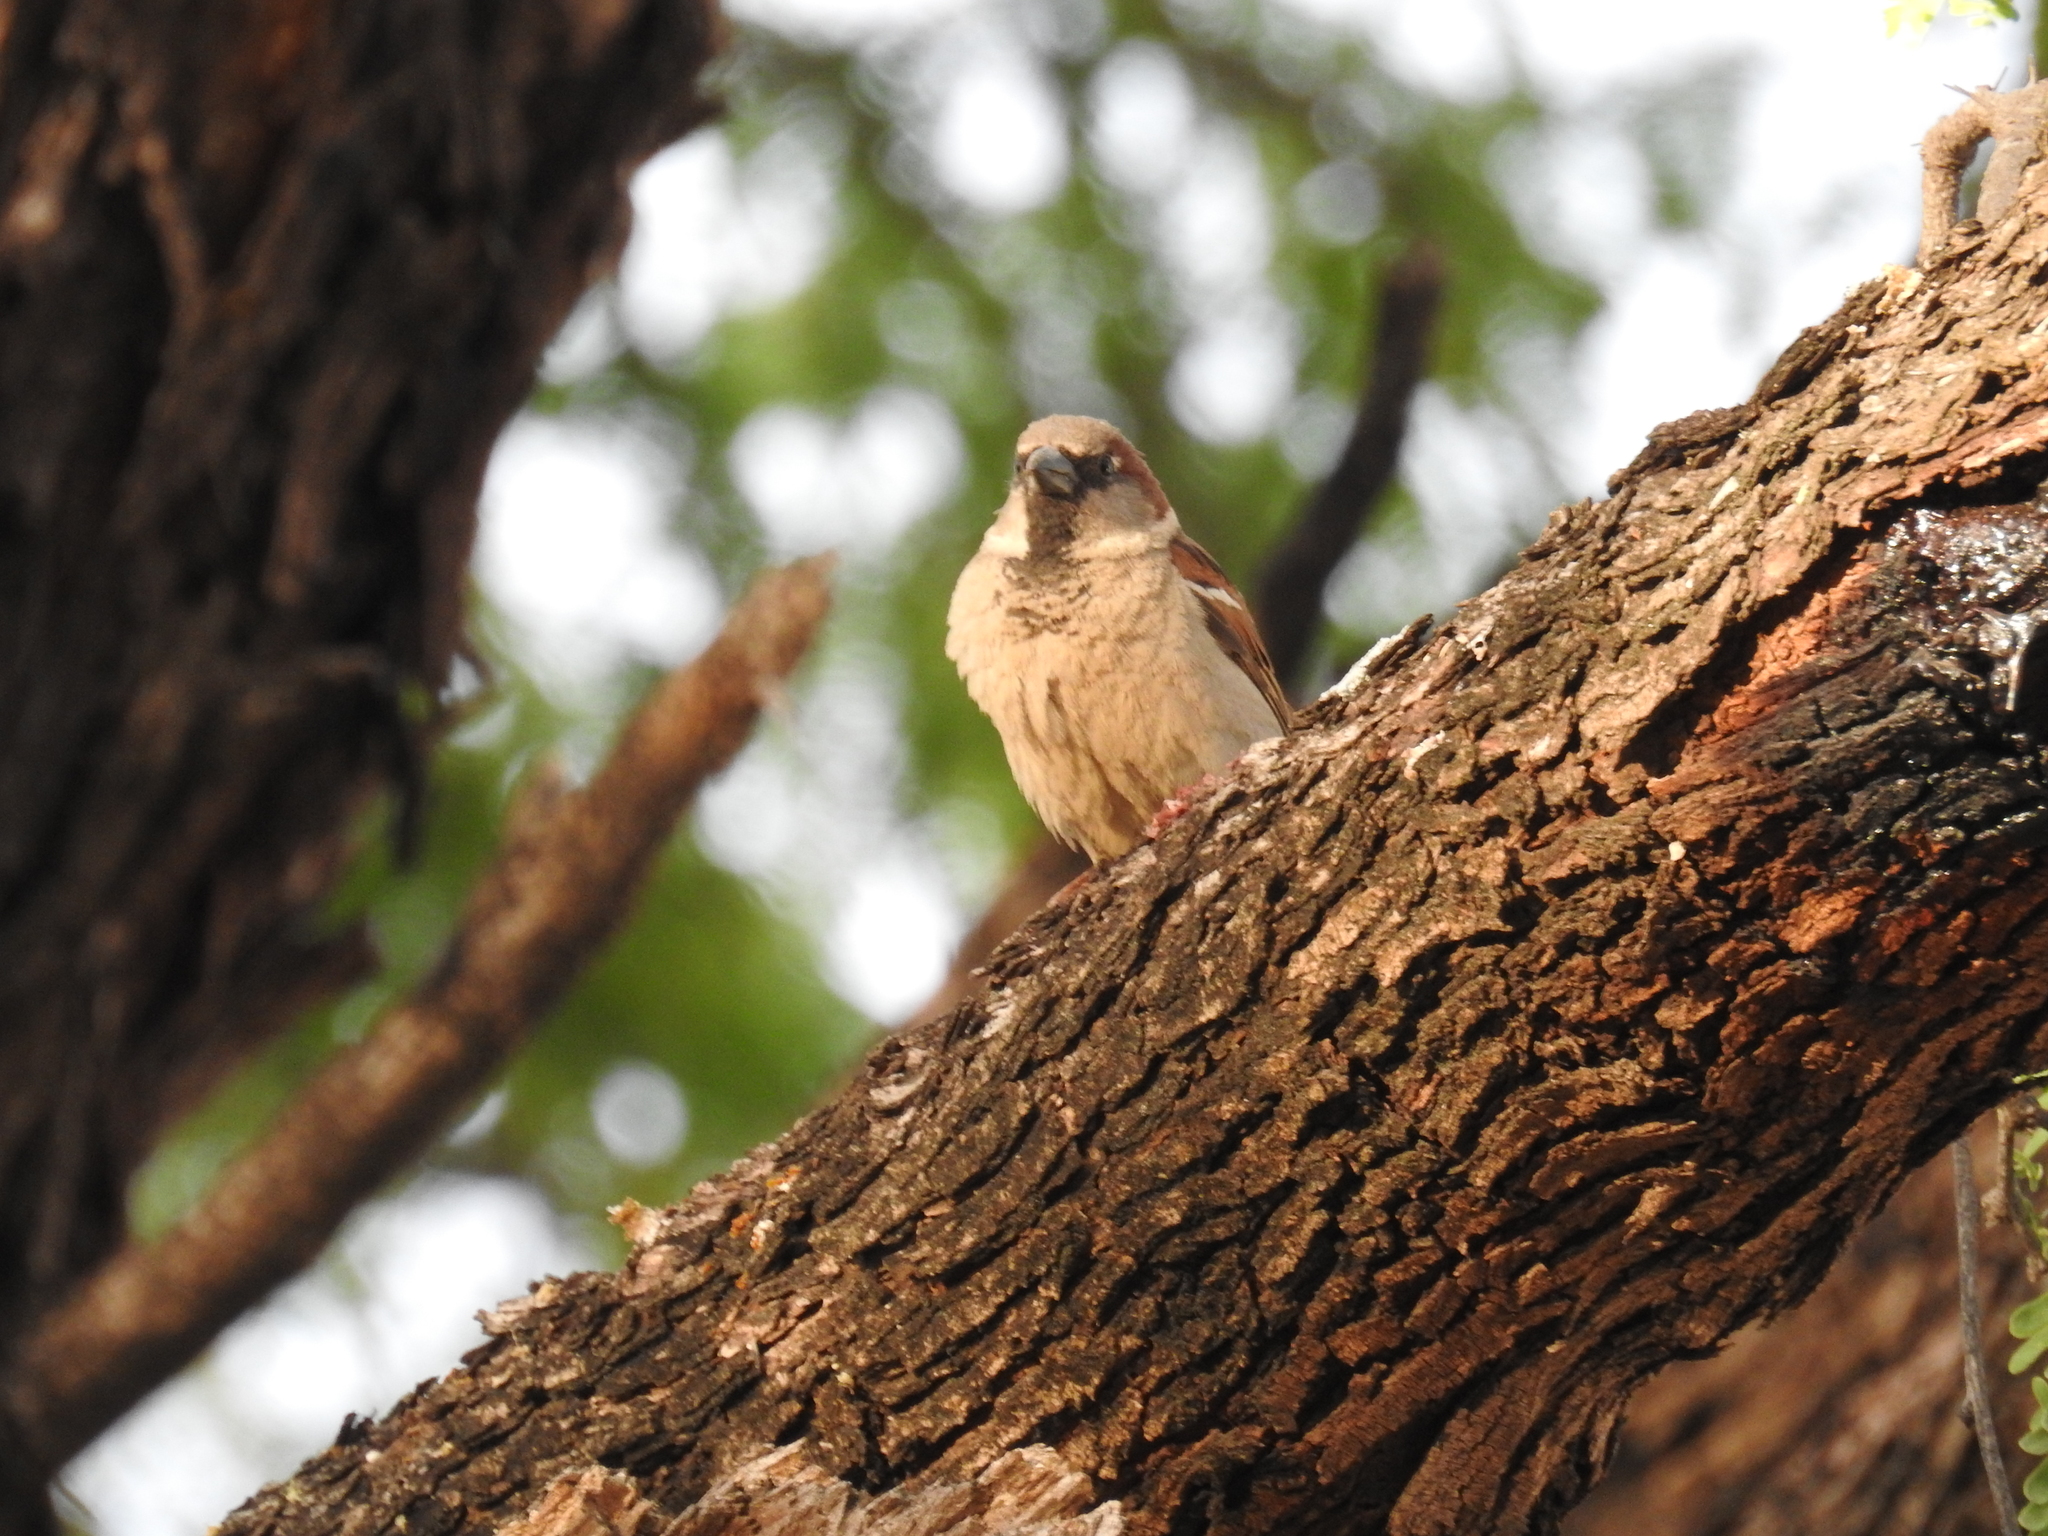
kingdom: Animalia
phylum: Chordata
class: Aves
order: Passeriformes
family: Passeridae
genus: Passer
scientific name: Passer domesticus
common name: House sparrow
